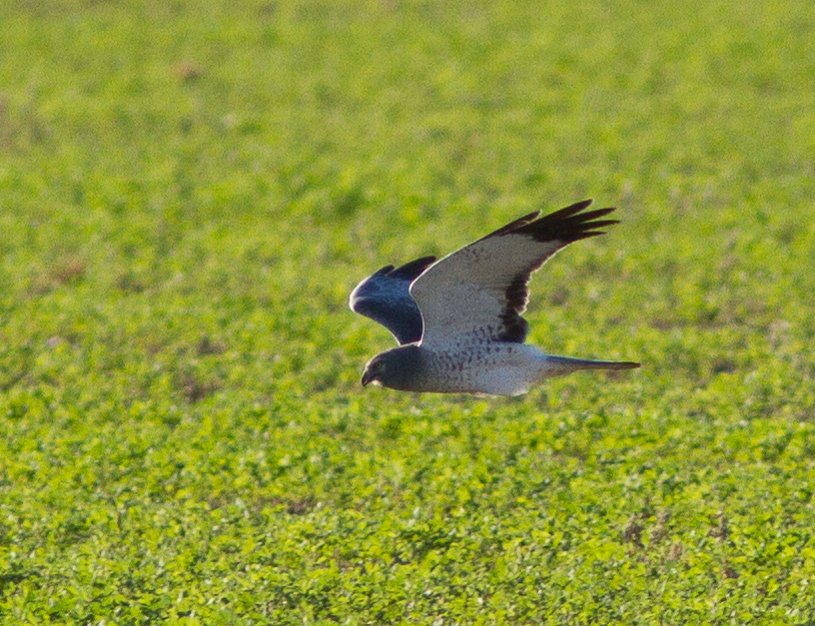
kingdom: Animalia
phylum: Chordata
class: Aves
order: Accipitriformes
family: Accipitridae
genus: Circus
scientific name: Circus cyaneus
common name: Hen harrier
